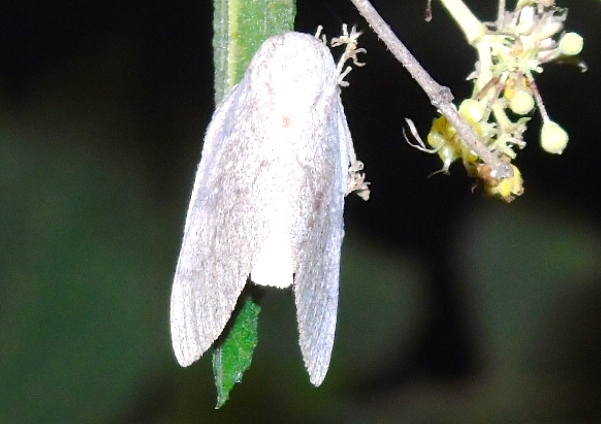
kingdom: Animalia
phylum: Arthropoda
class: Insecta
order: Lepidoptera
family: Saturniidae
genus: Syssphinx
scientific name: Syssphinx hubbardi
